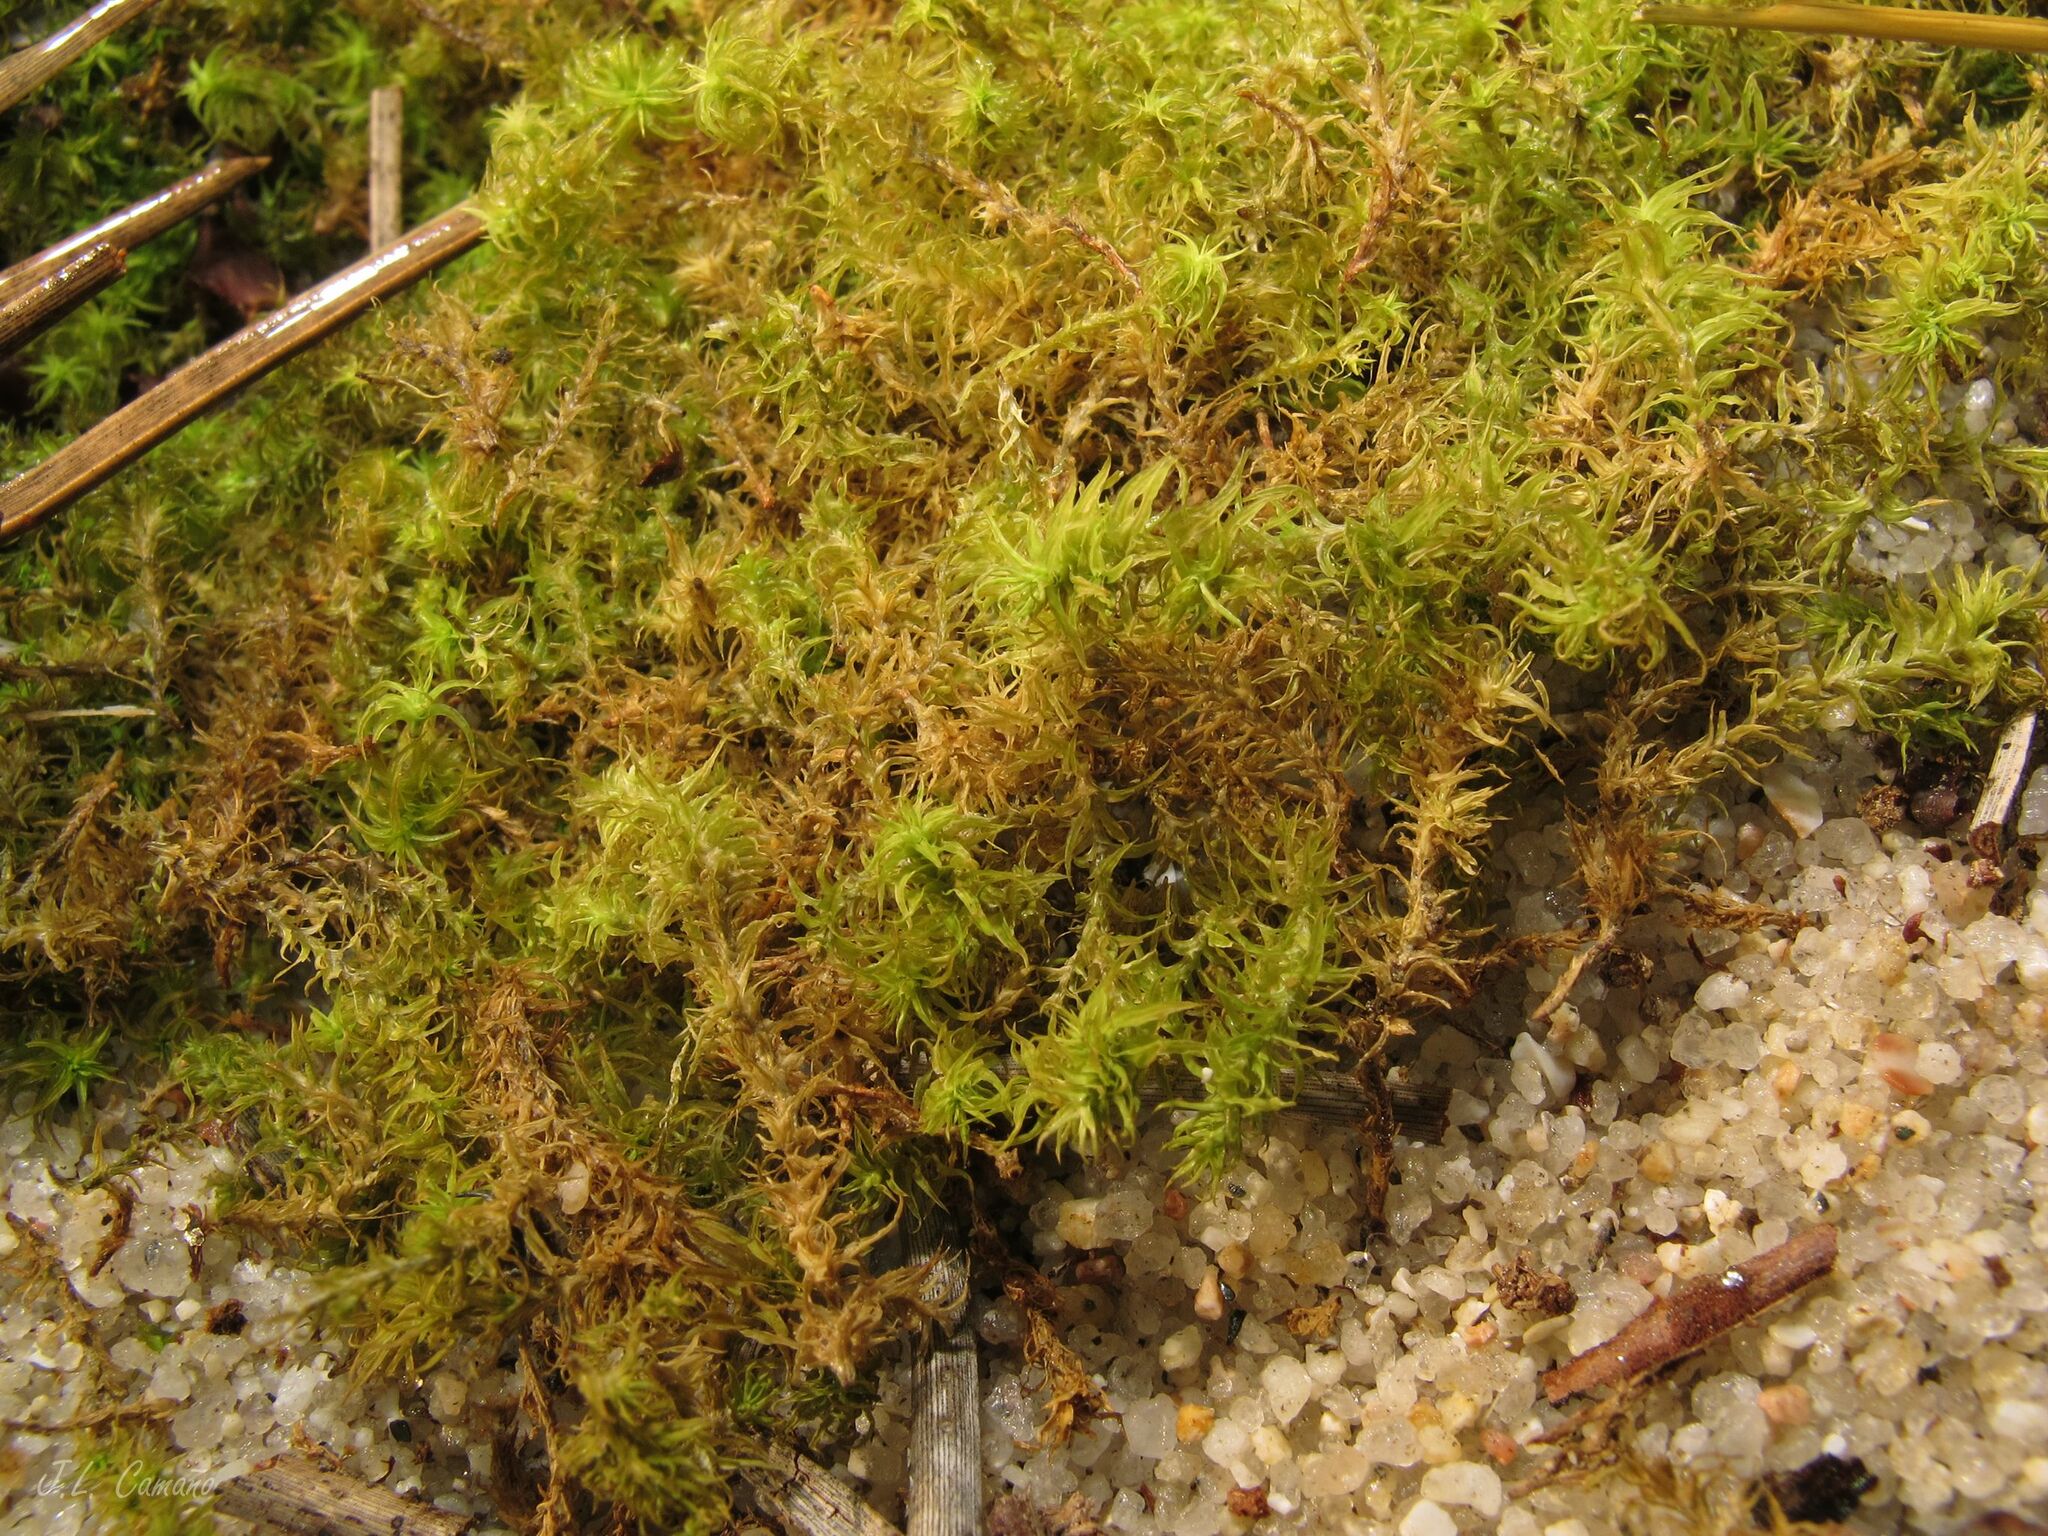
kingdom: Plantae
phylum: Bryophyta
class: Bryopsida
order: Pottiales
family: Pottiaceae
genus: Pleurochaete
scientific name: Pleurochaete squarrosa
